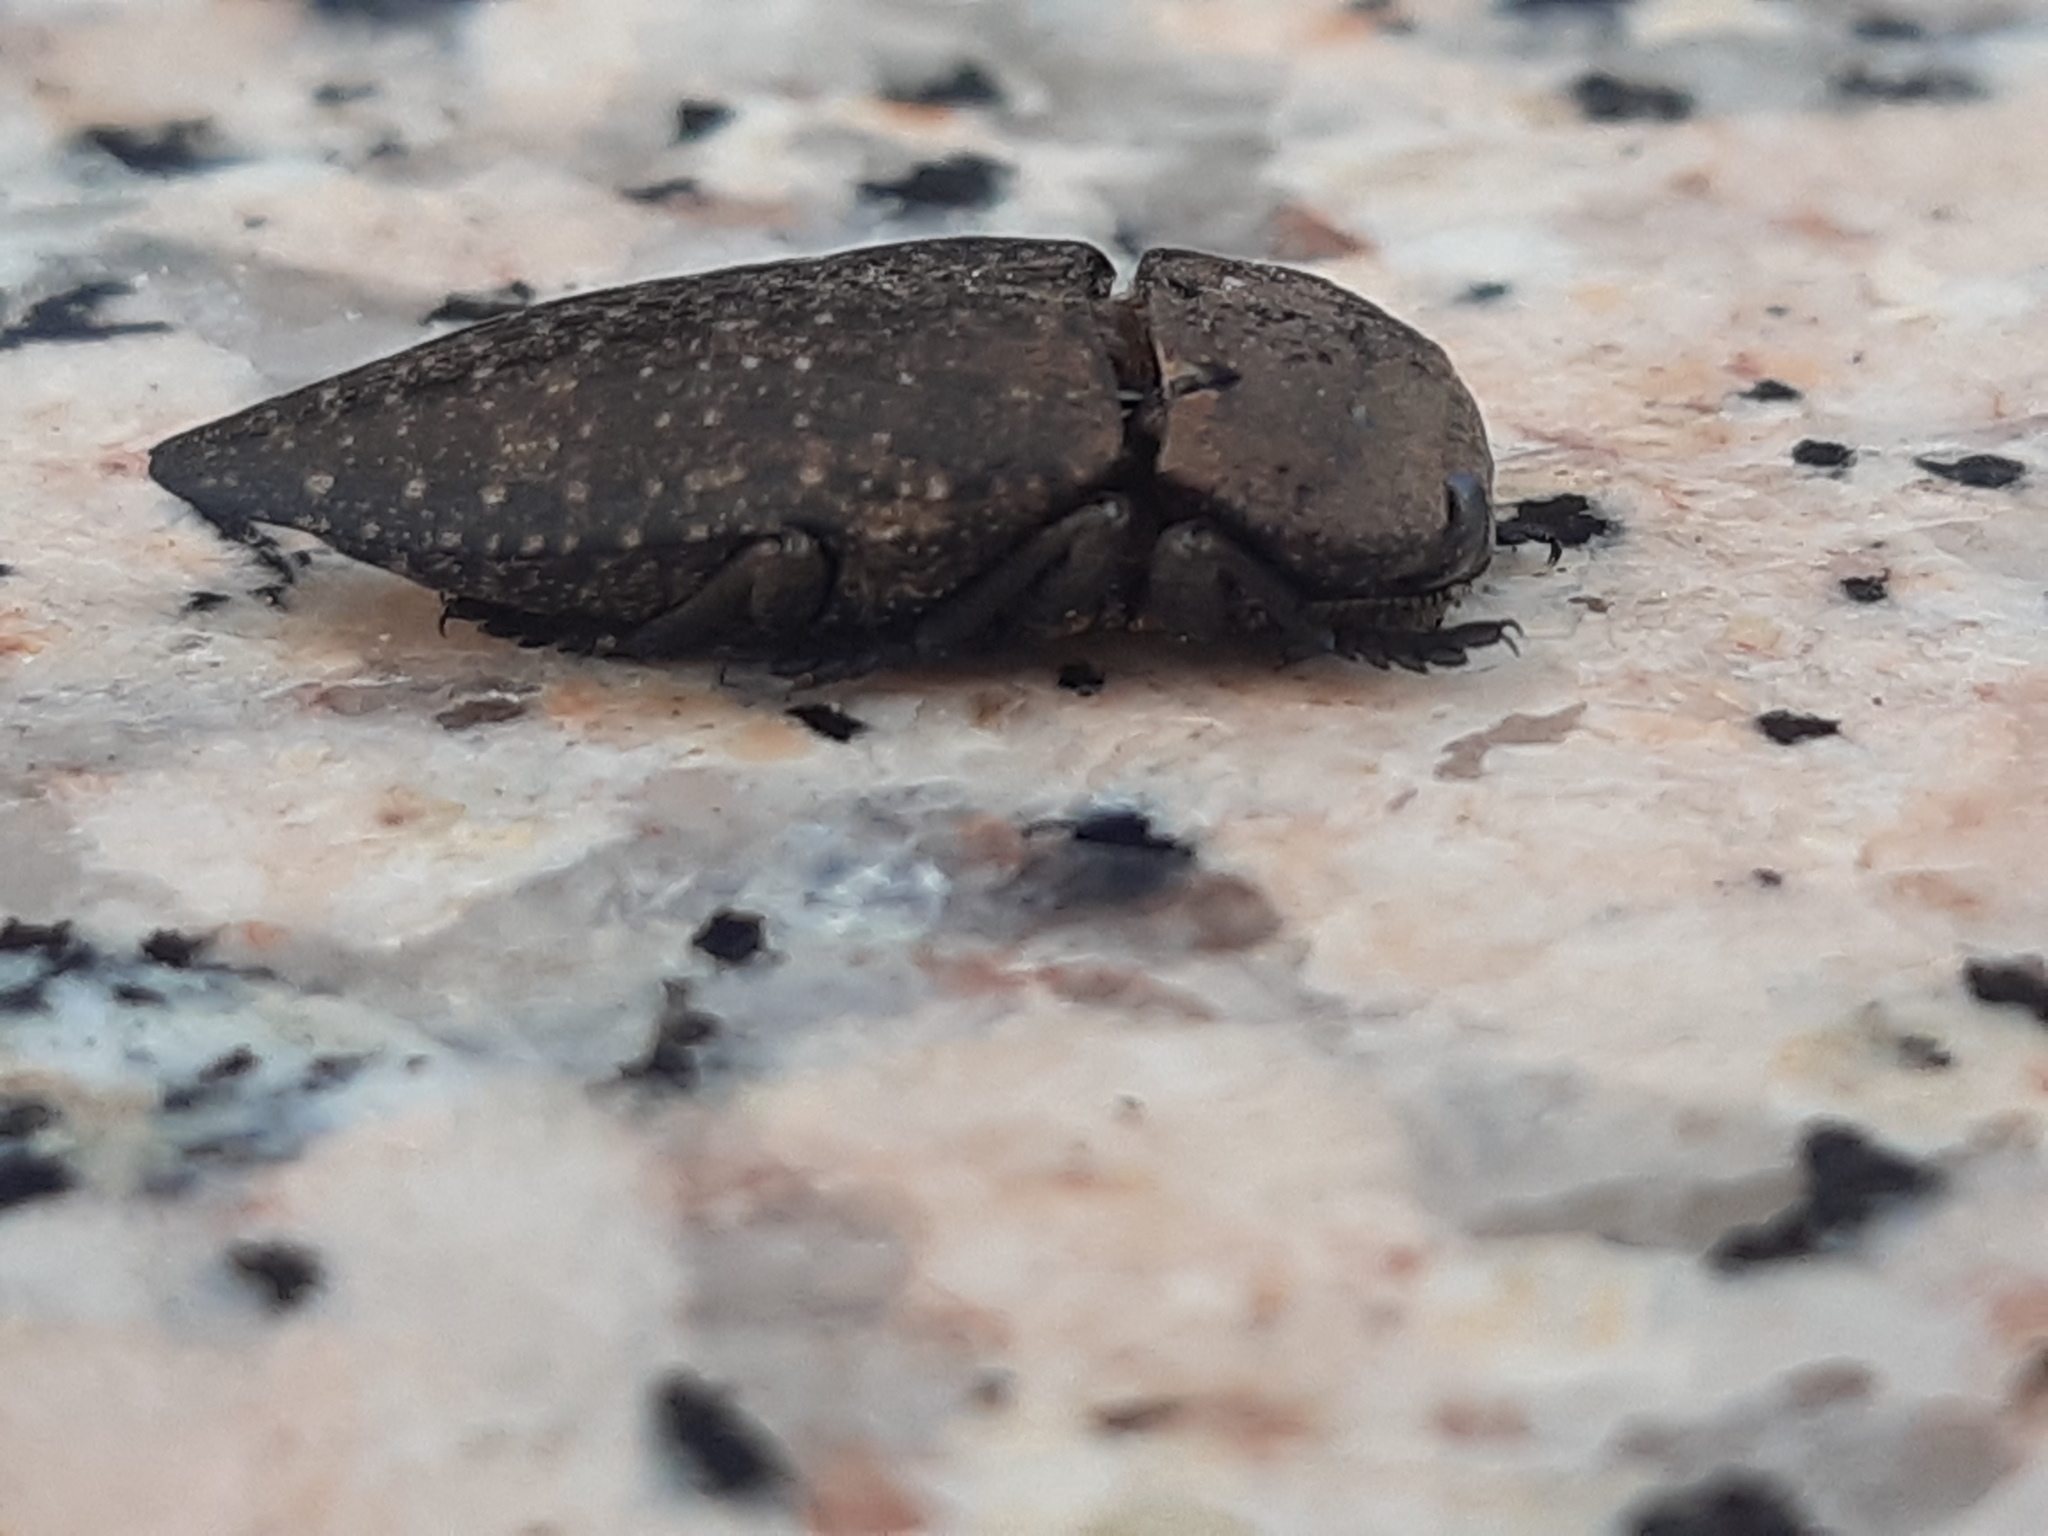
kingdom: Animalia
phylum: Arthropoda
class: Insecta
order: Coleoptera
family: Buprestidae
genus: Capnodis
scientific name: Capnodis tenebricosa
